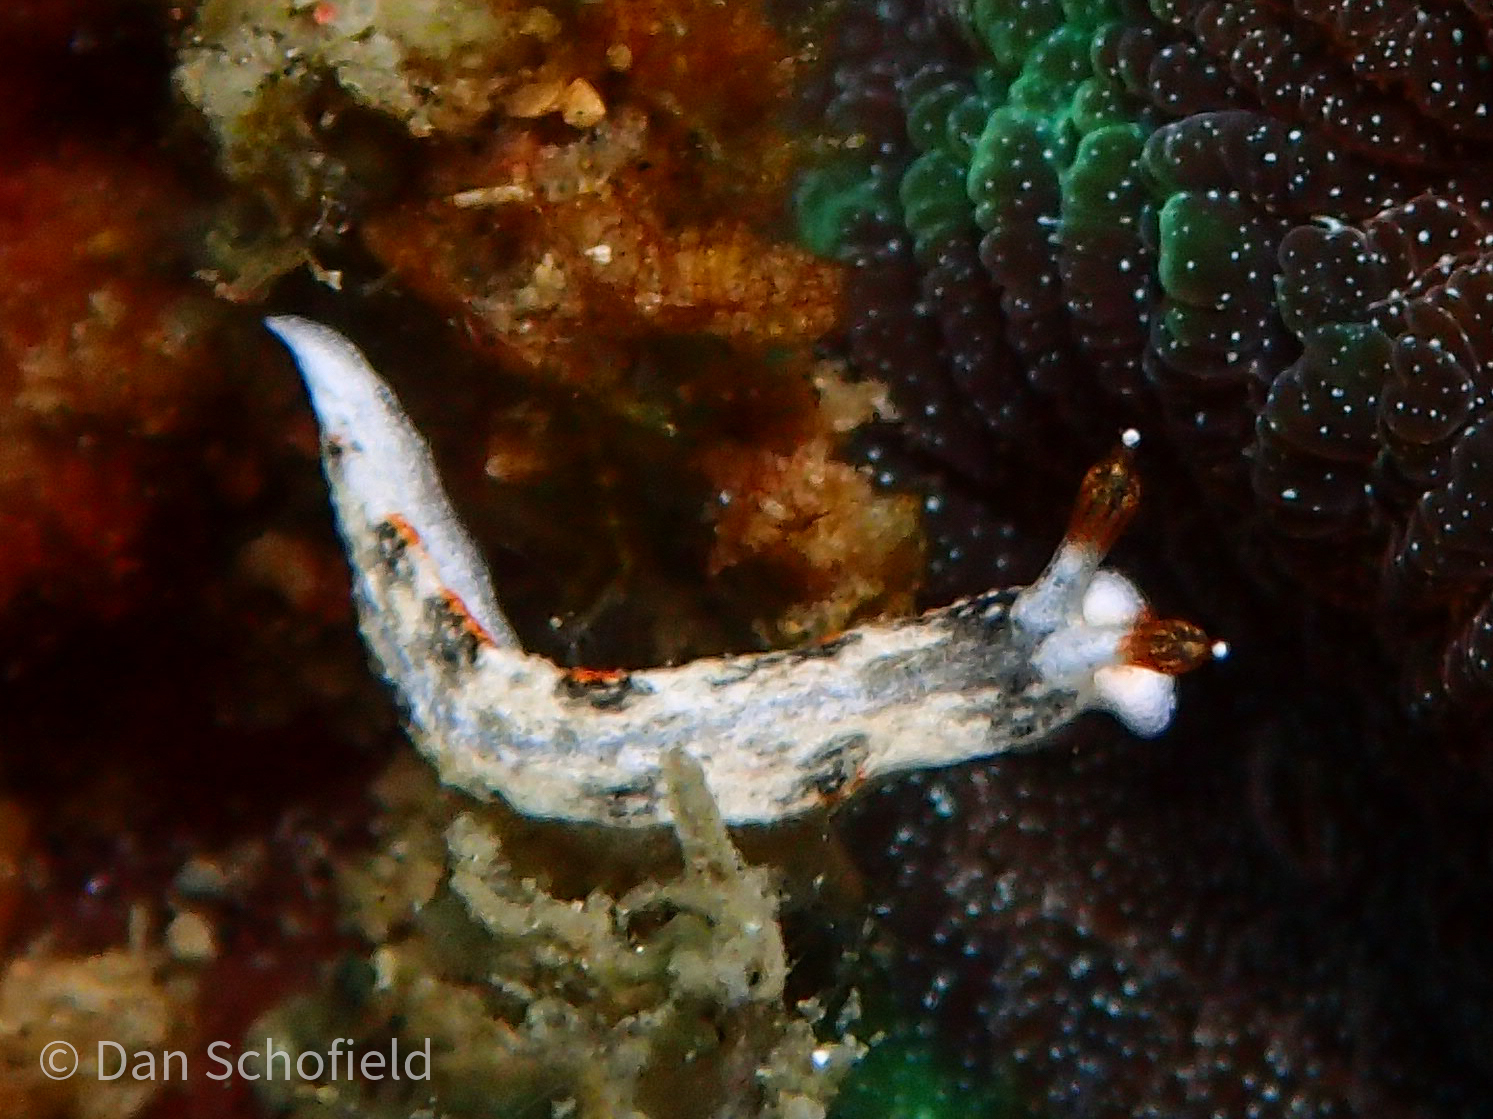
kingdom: Animalia
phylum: Mollusca
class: Gastropoda
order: Nudibranchia
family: Arminidae
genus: Dermatobranchus
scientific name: Dermatobranchus fortunatus
